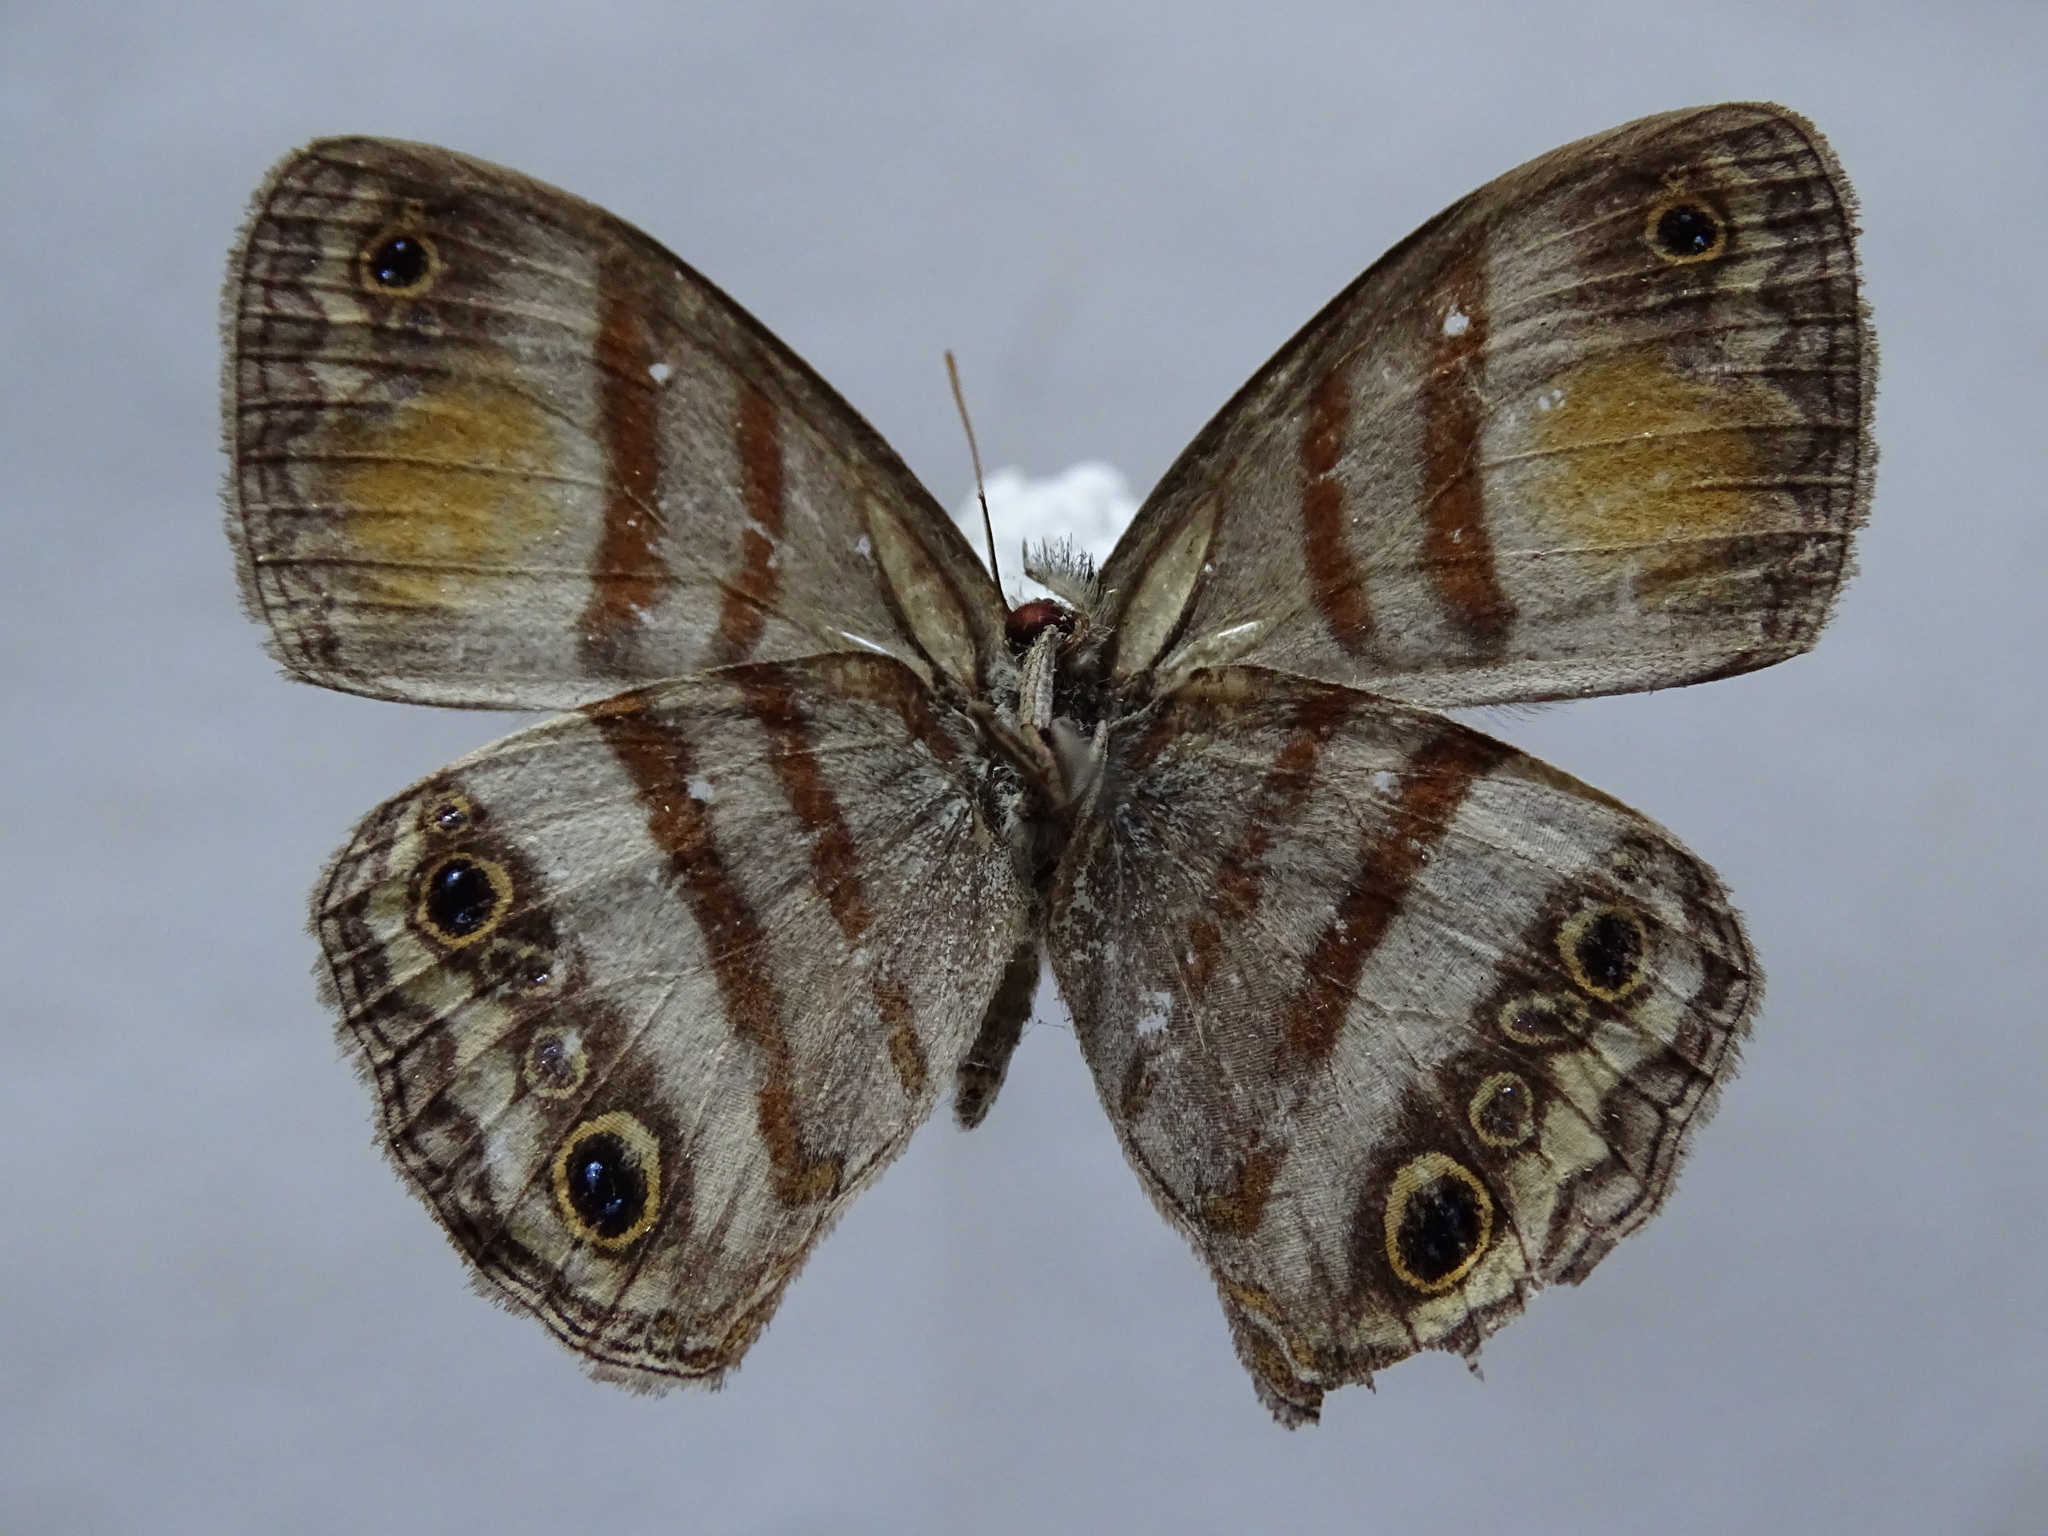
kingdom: Animalia
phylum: Arthropoda
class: Insecta
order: Lepidoptera
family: Nymphalidae
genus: Paryphthimoides
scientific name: Paryphthimoides
